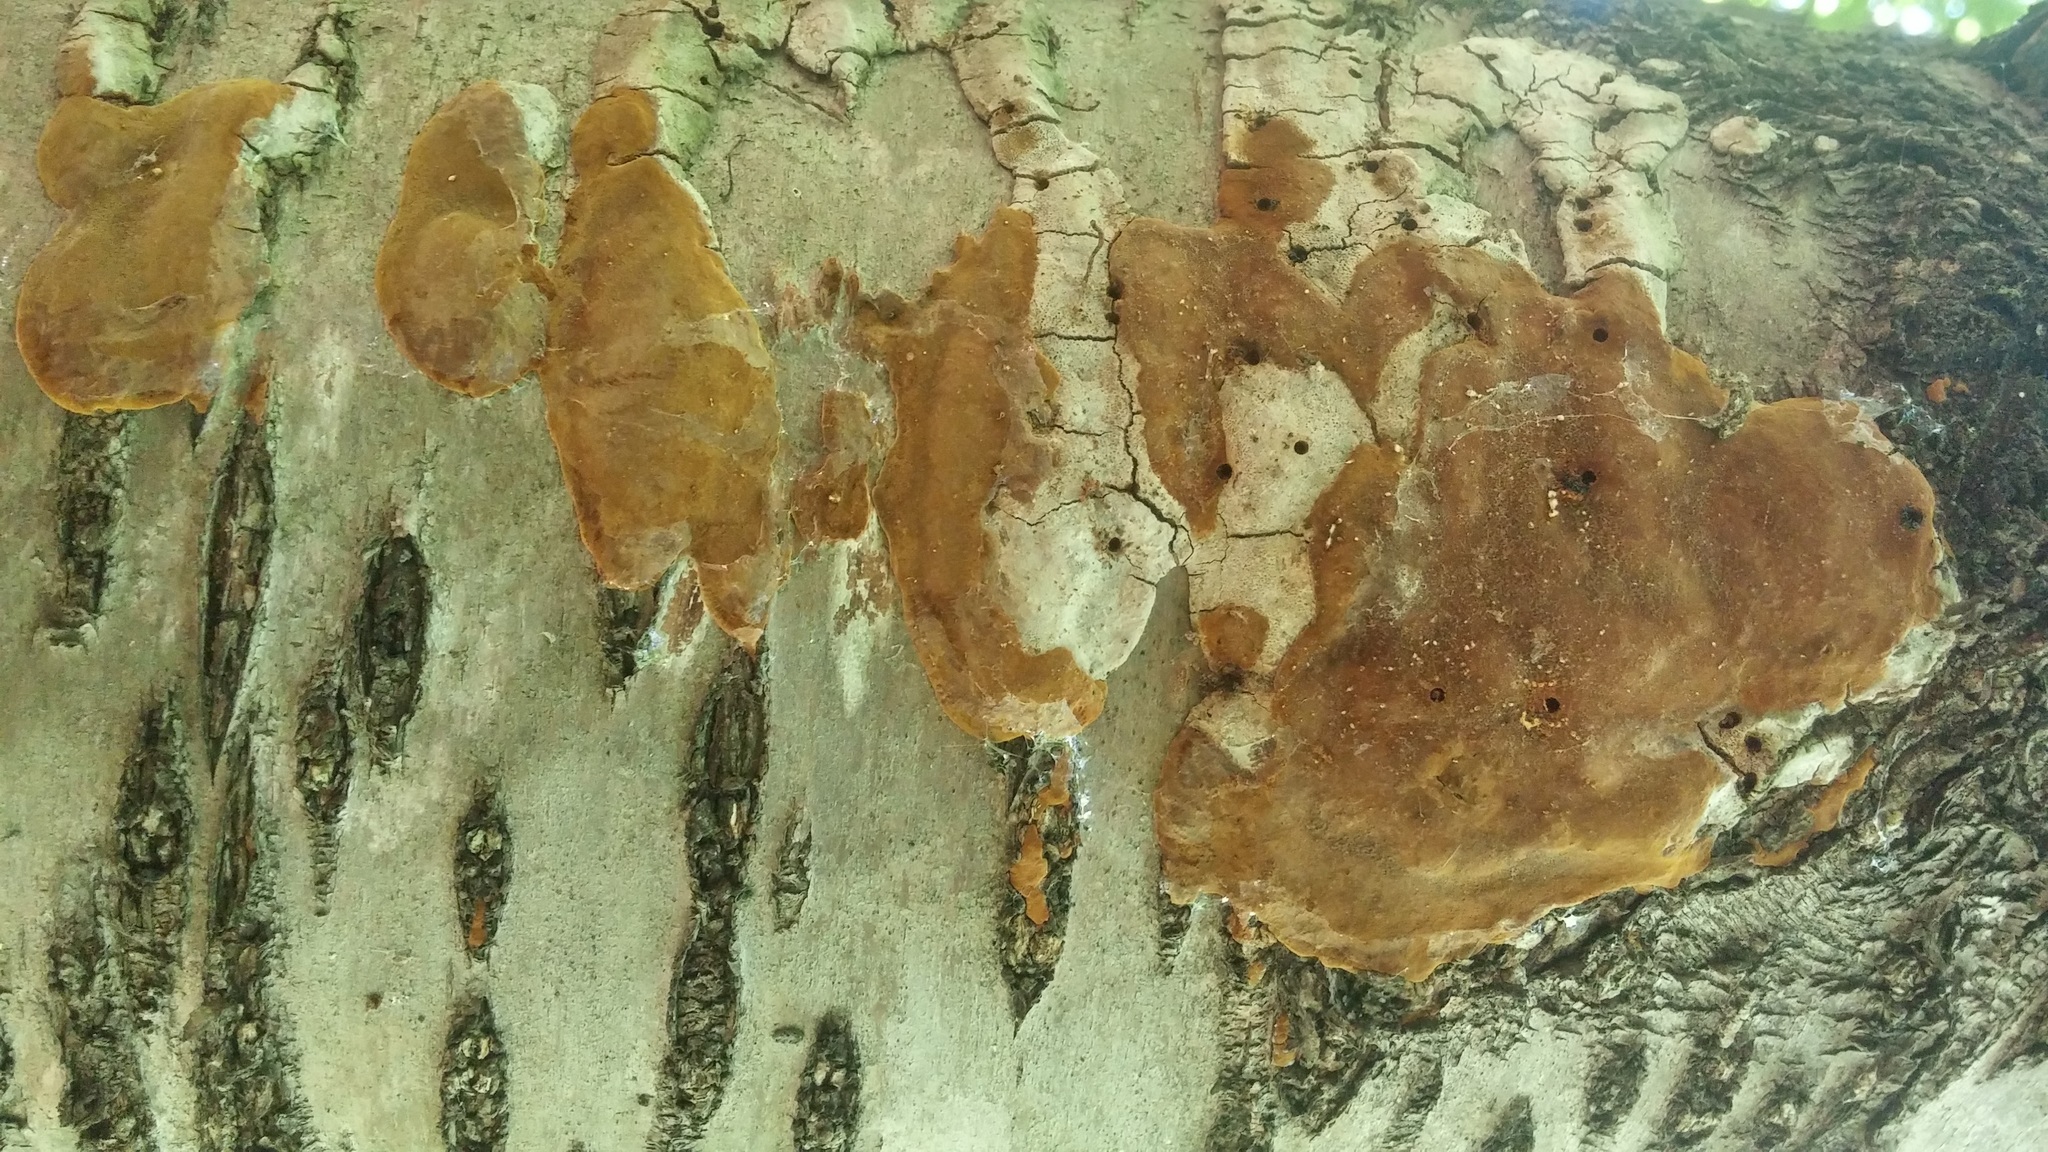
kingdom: Fungi
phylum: Basidiomycota
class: Agaricomycetes
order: Hymenochaetales
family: Hymenochaetaceae
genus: Phellinus
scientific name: Phellinus betulinus
